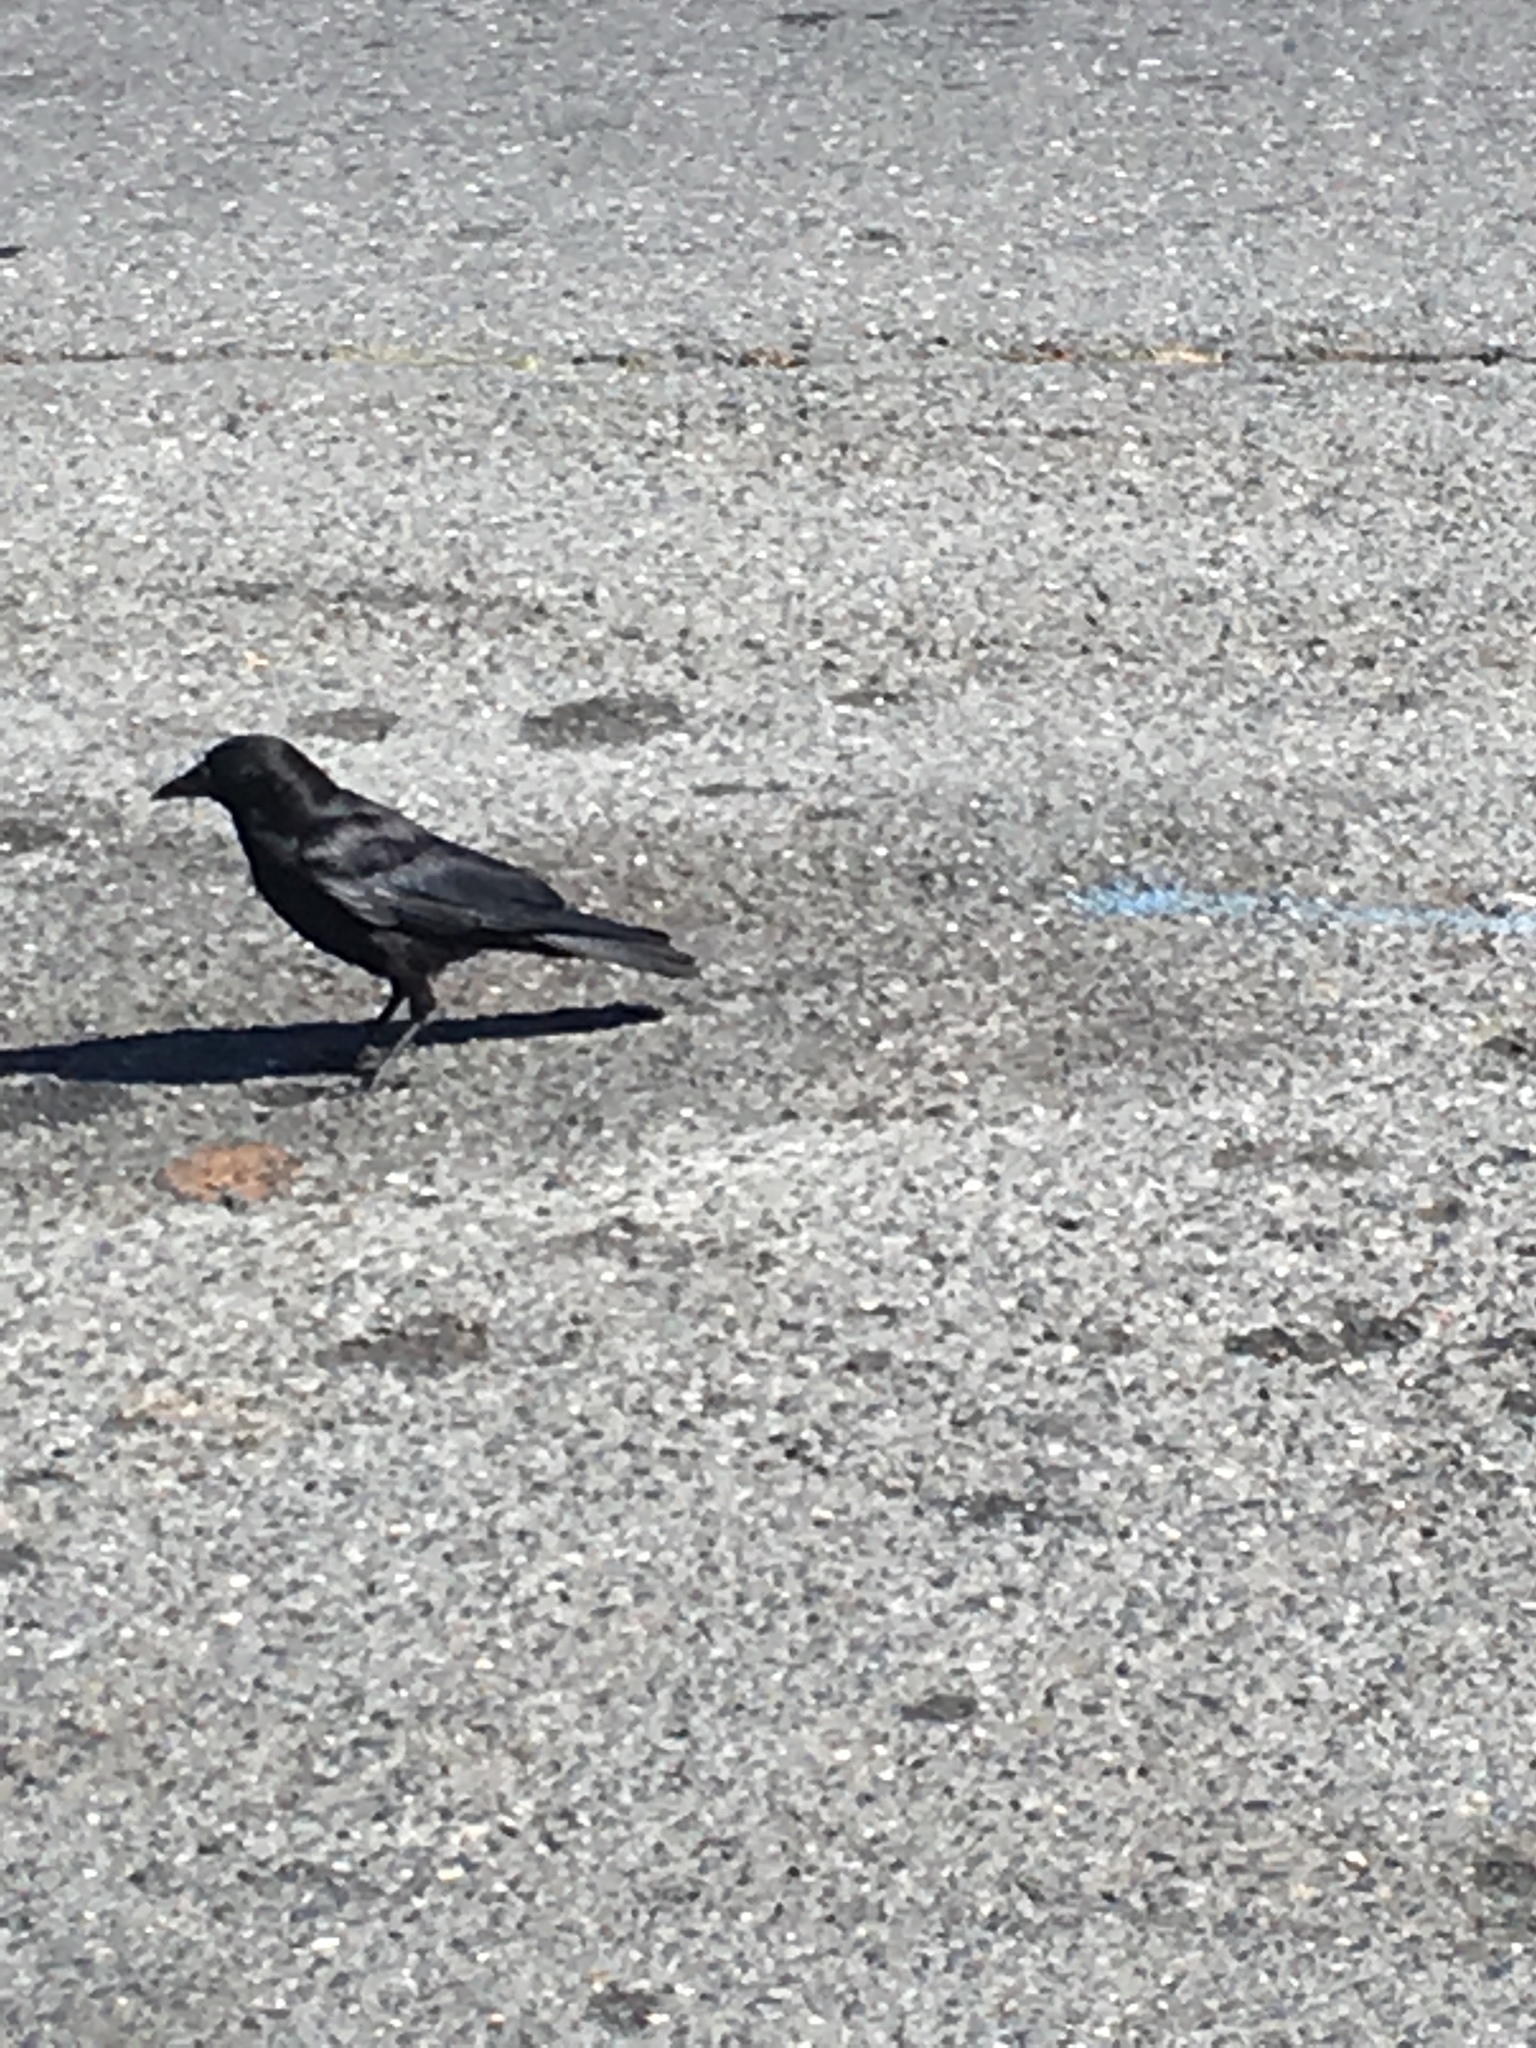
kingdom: Animalia
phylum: Chordata
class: Aves
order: Passeriformes
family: Corvidae
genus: Corvus
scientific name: Corvus brachyrhynchos
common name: American crow
